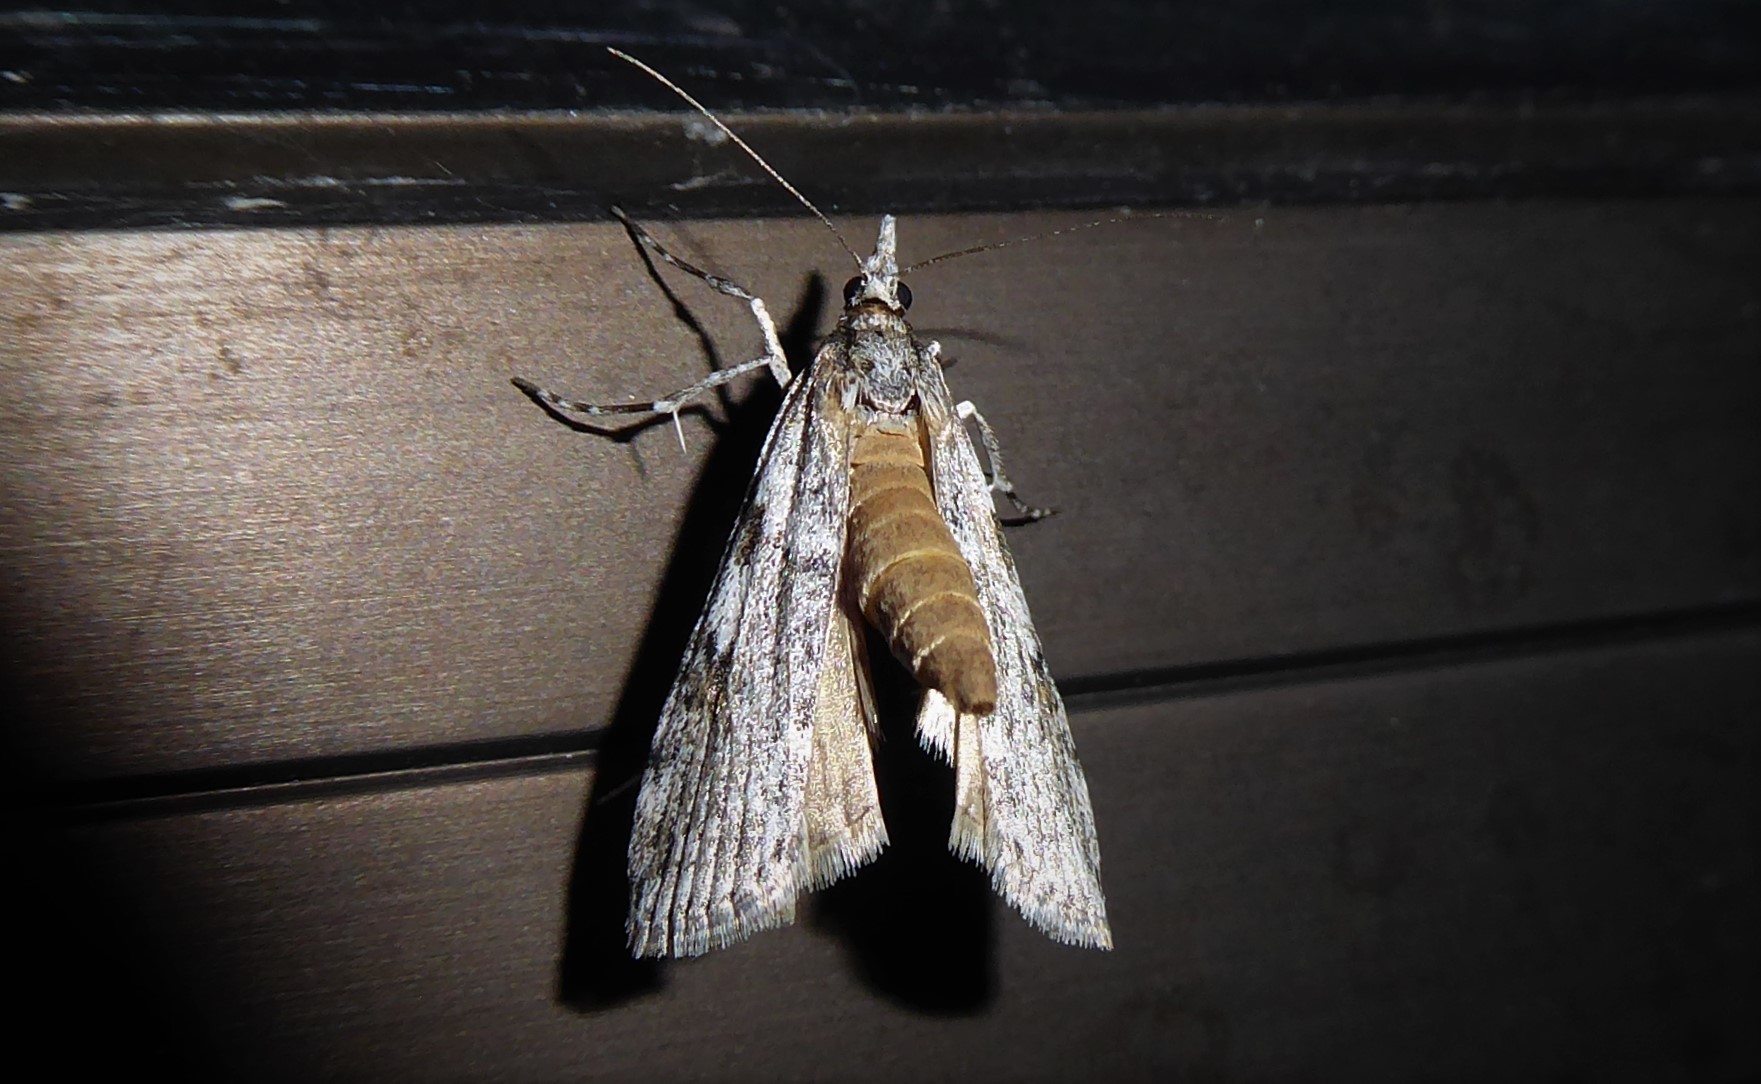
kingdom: Animalia
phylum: Arthropoda
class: Insecta
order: Lepidoptera
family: Crambidae
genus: Scoparia
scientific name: Scoparia halopis
